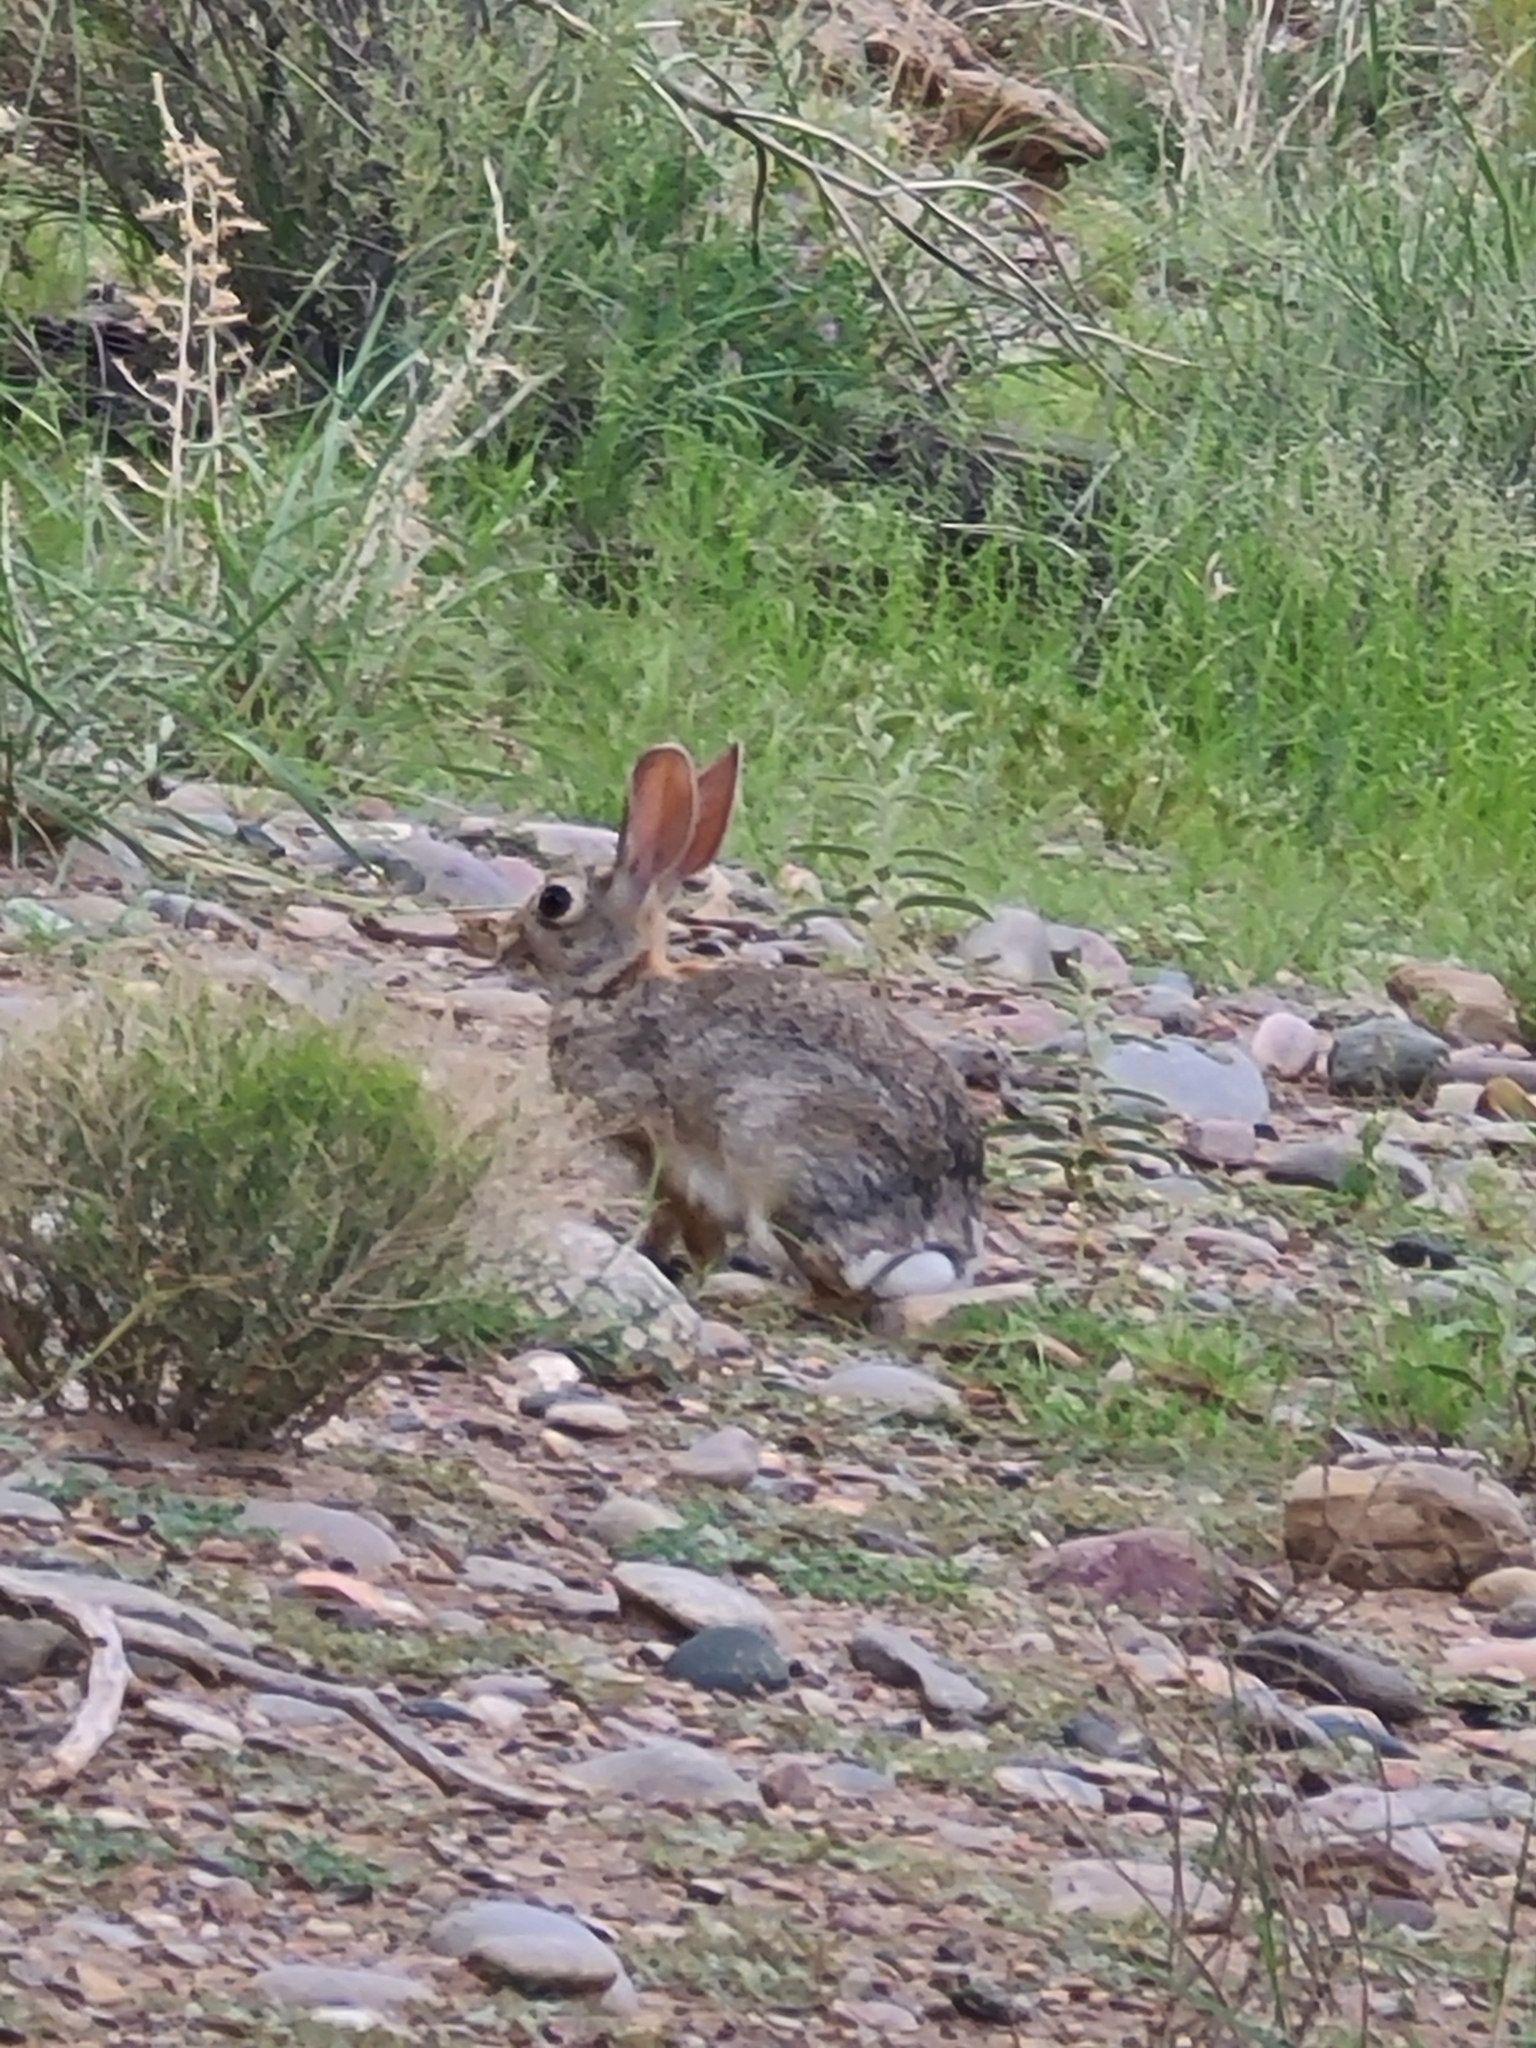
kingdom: Animalia
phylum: Chordata
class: Mammalia
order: Lagomorpha
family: Leporidae
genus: Sylvilagus
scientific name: Sylvilagus audubonii
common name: Desert cottontail
